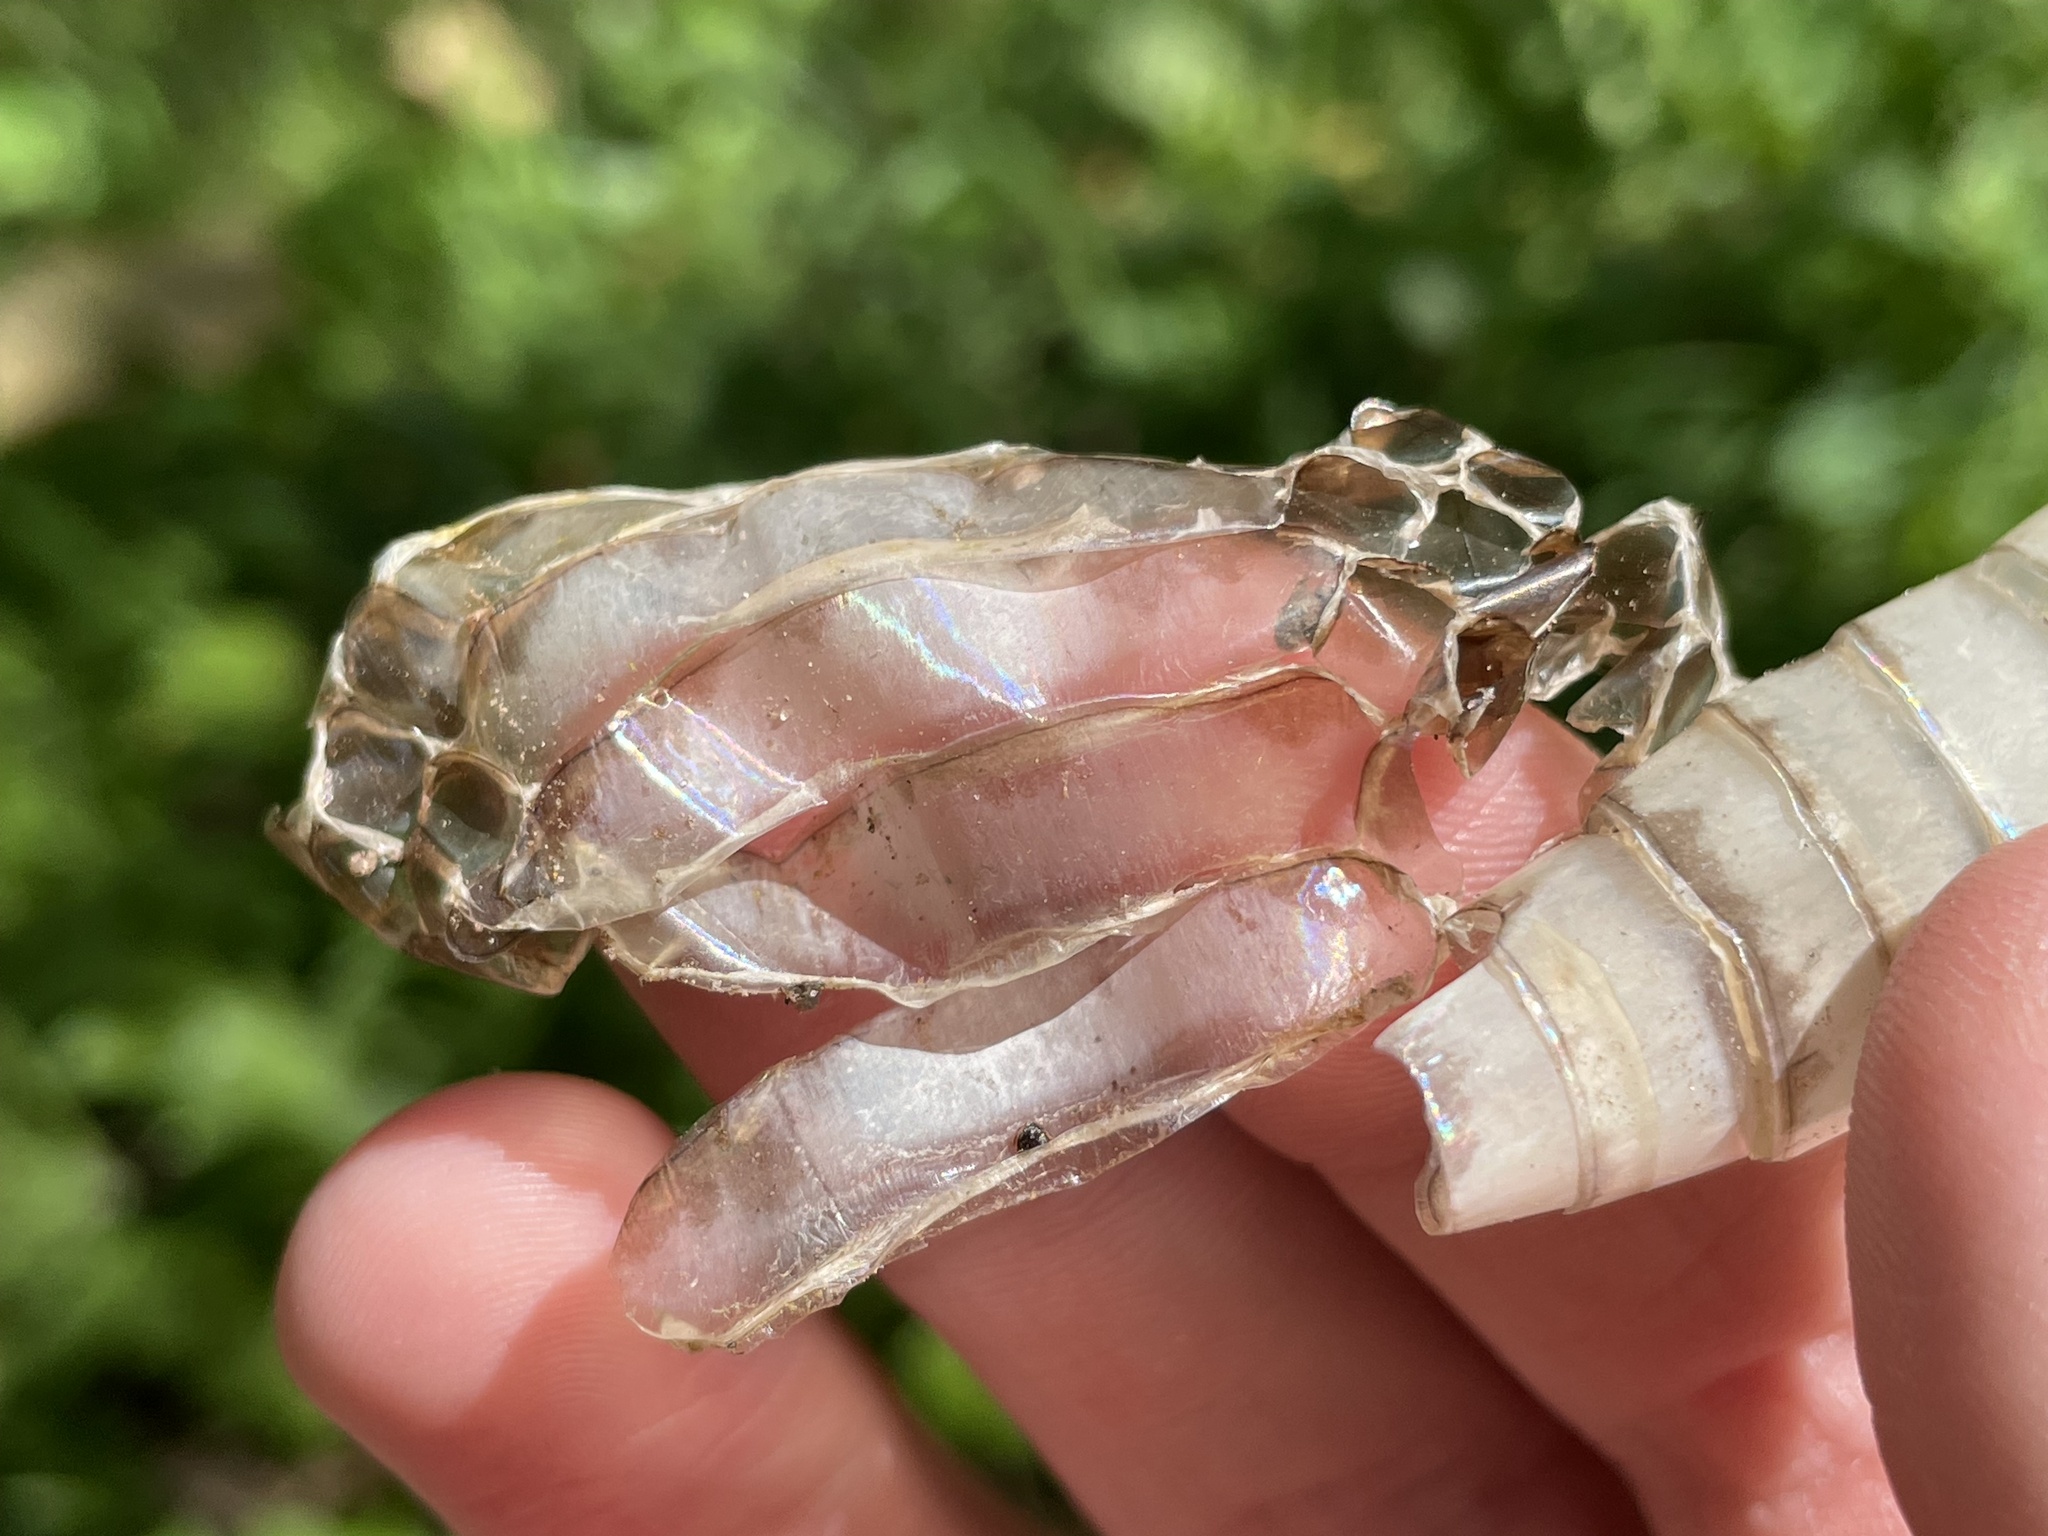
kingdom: Animalia
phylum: Chordata
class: Squamata
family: Colubridae
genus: Nerodia
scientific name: Nerodia sipedon
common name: Northern water snake
